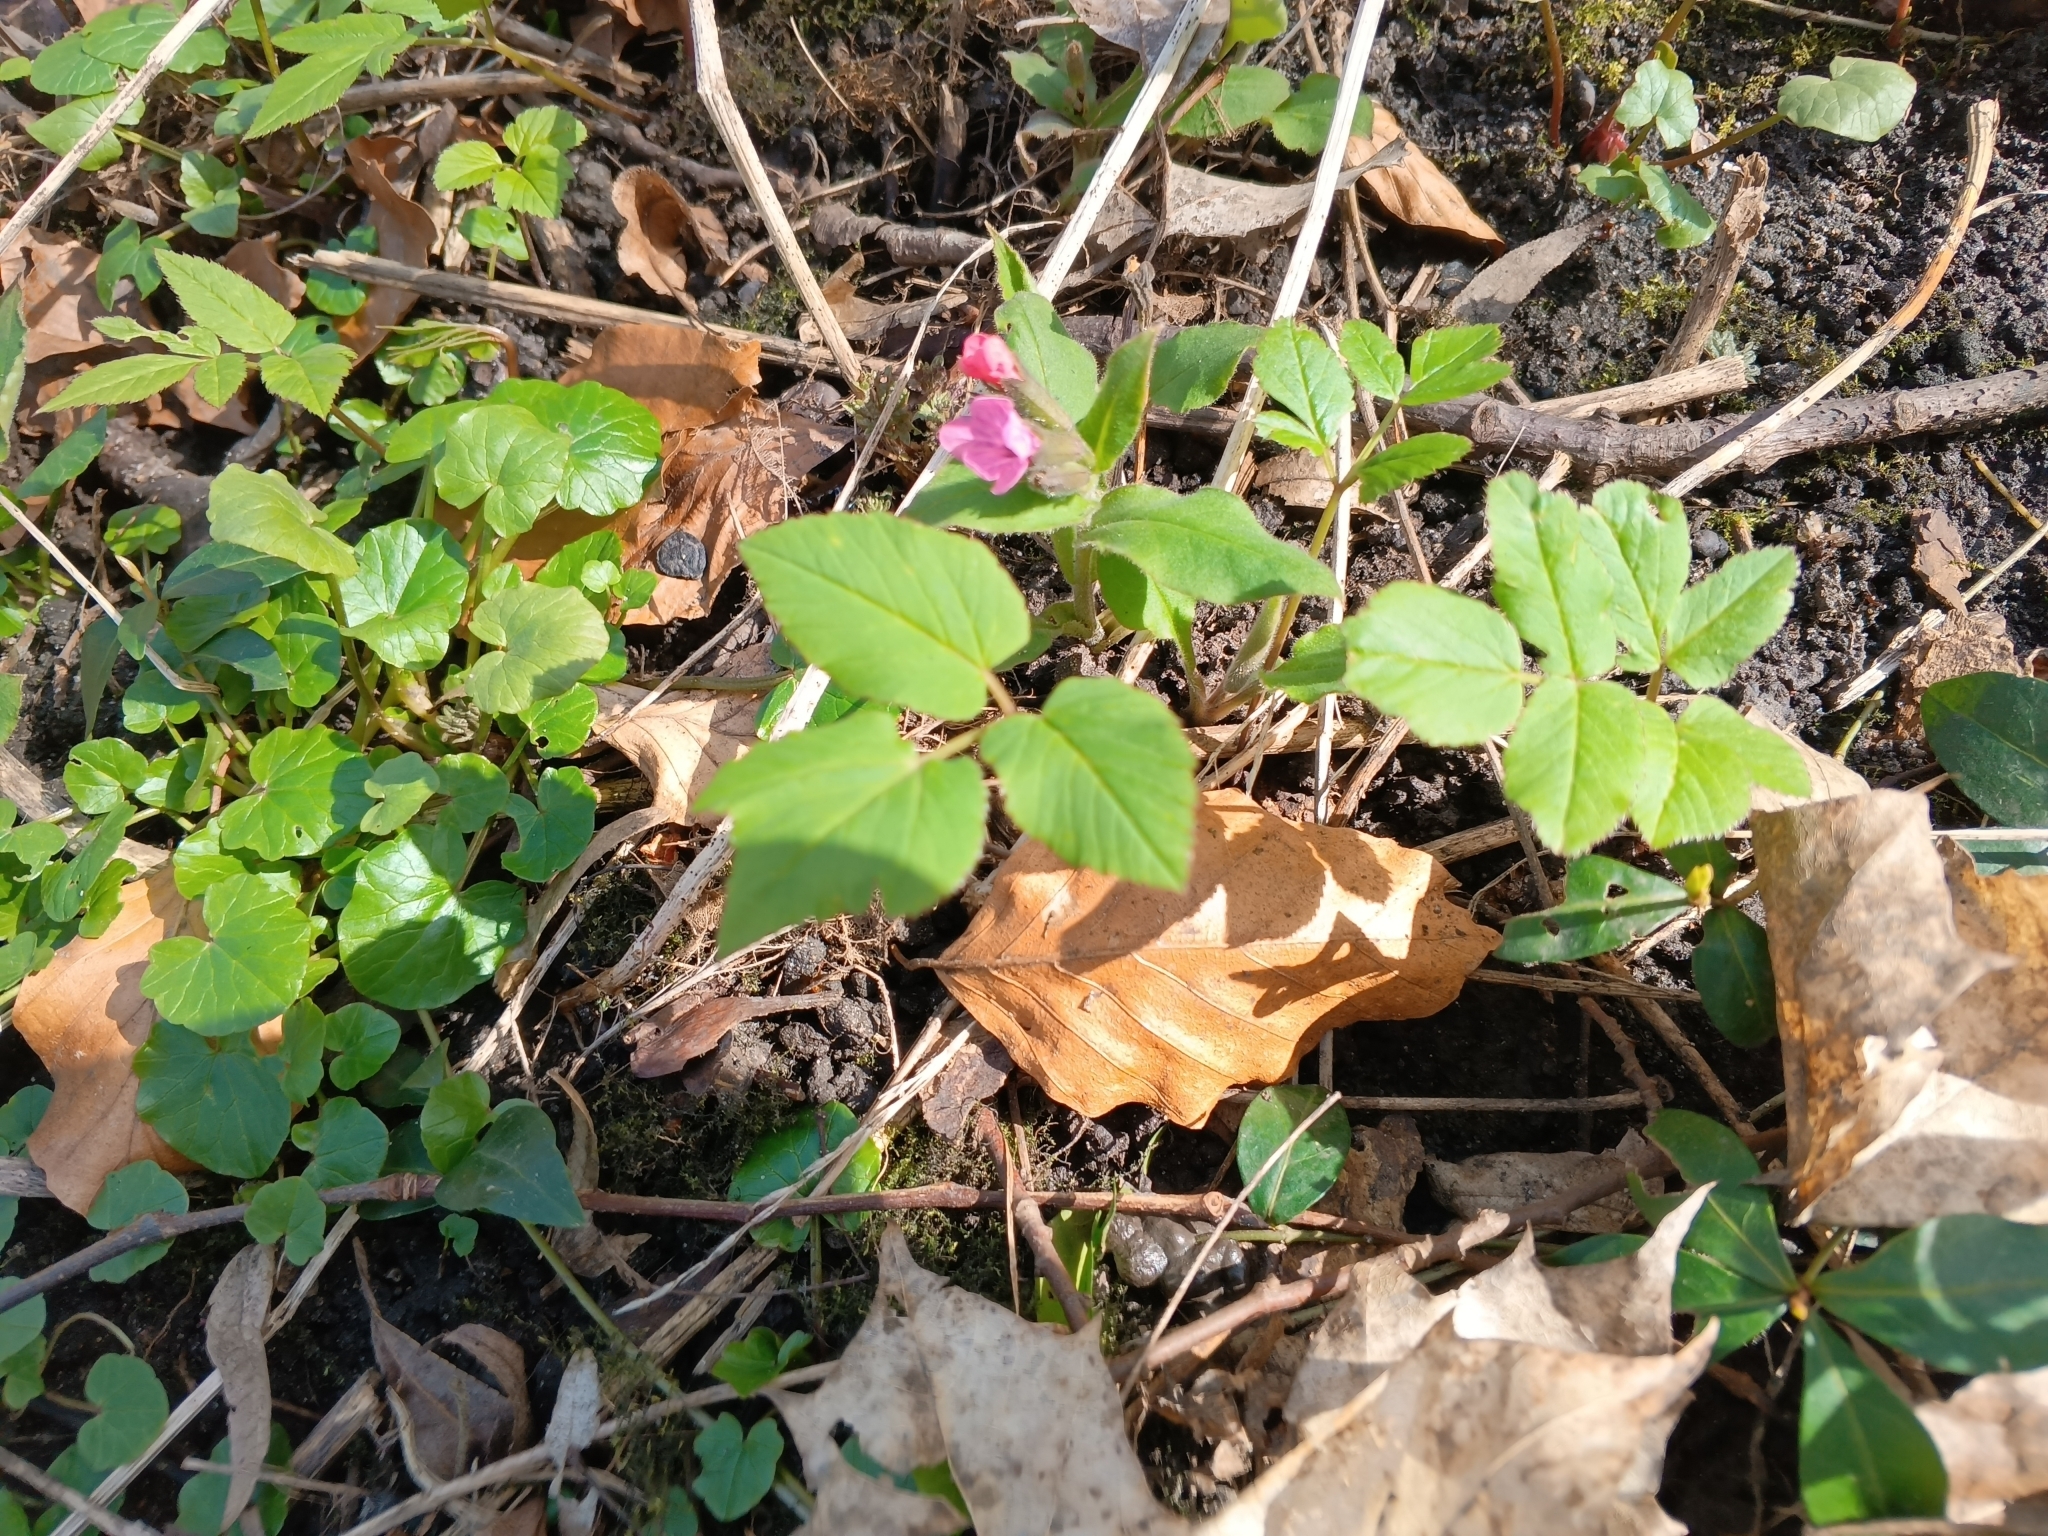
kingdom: Plantae
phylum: Tracheophyta
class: Magnoliopsida
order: Apiales
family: Apiaceae
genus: Aegopodium
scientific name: Aegopodium podagraria
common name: Ground-elder
